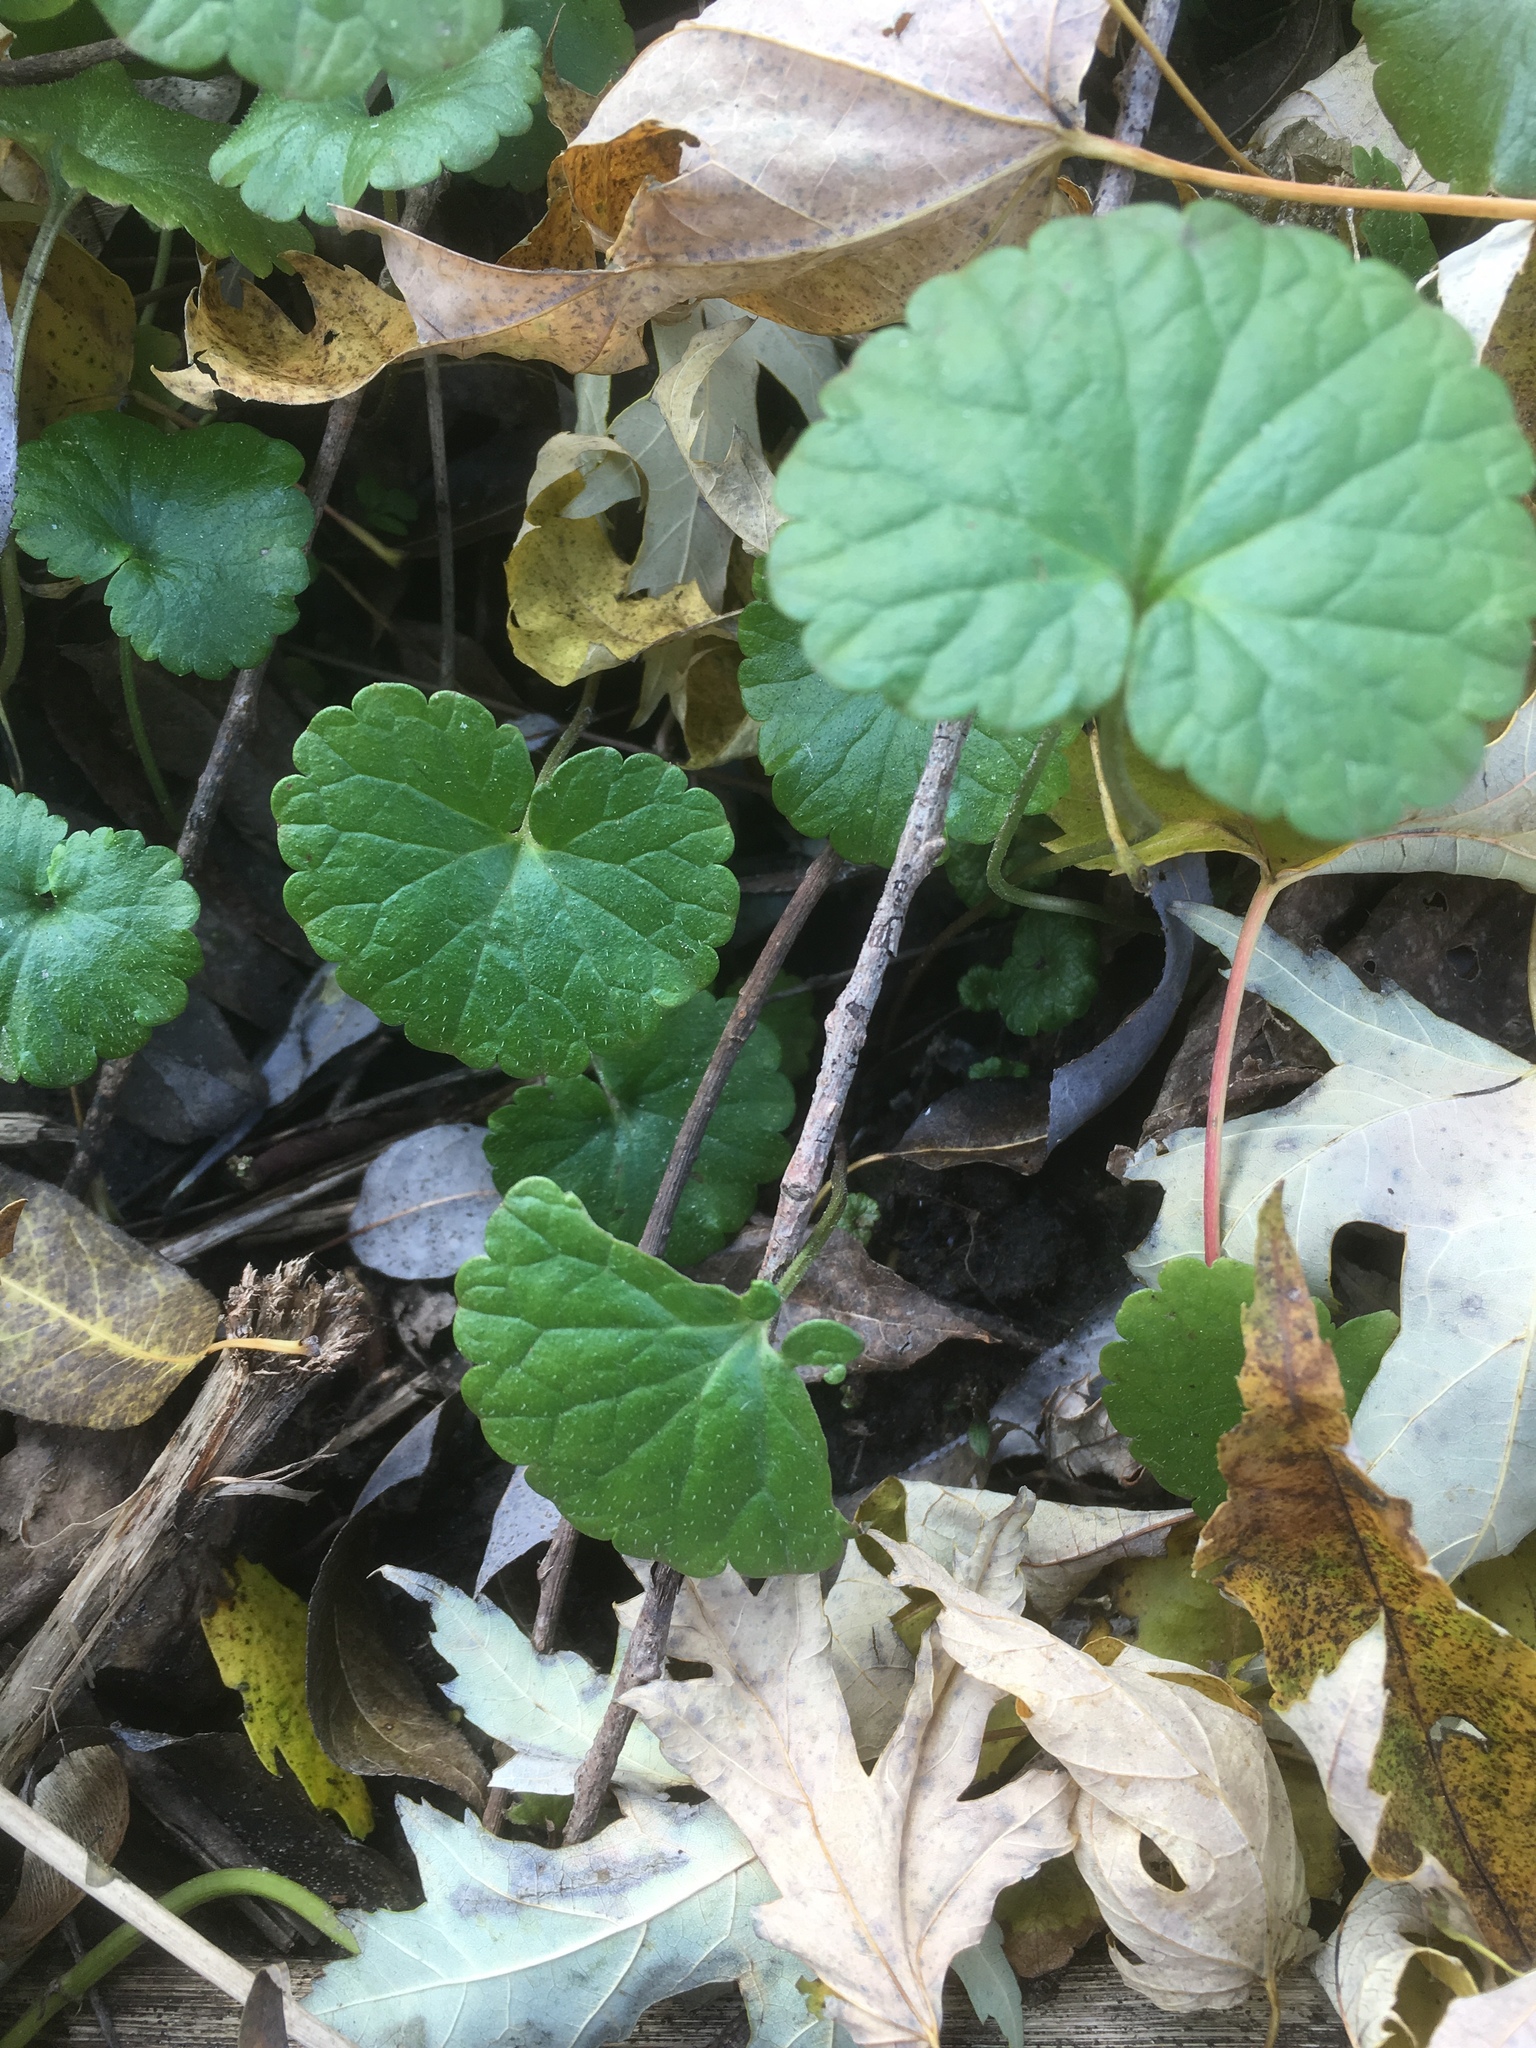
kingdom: Plantae
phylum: Tracheophyta
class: Magnoliopsida
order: Lamiales
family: Lamiaceae
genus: Glechoma
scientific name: Glechoma hederacea
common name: Ground ivy
